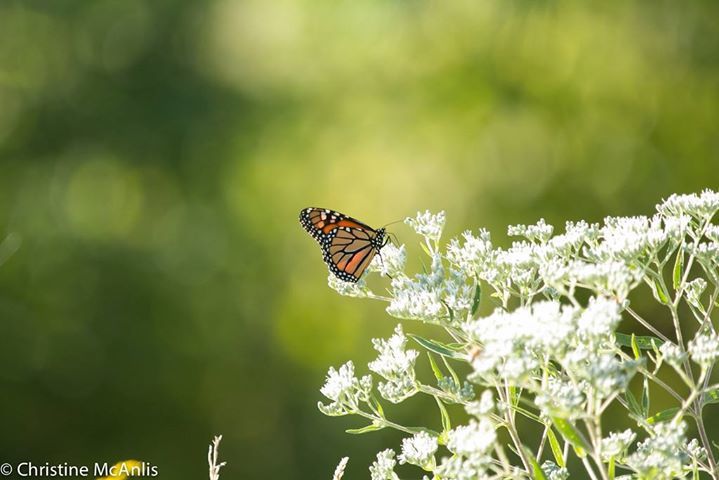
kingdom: Animalia
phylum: Arthropoda
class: Insecta
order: Lepidoptera
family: Nymphalidae
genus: Danaus
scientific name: Danaus plexippus
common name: Monarch
